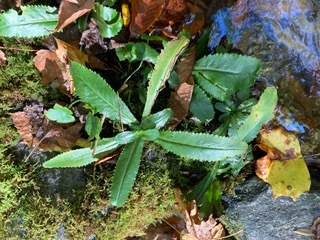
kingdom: Plantae
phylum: Tracheophyta
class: Magnoliopsida
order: Saxifragales
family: Saxifragaceae
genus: Micranthes
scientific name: Micranthes micranthidifolia
